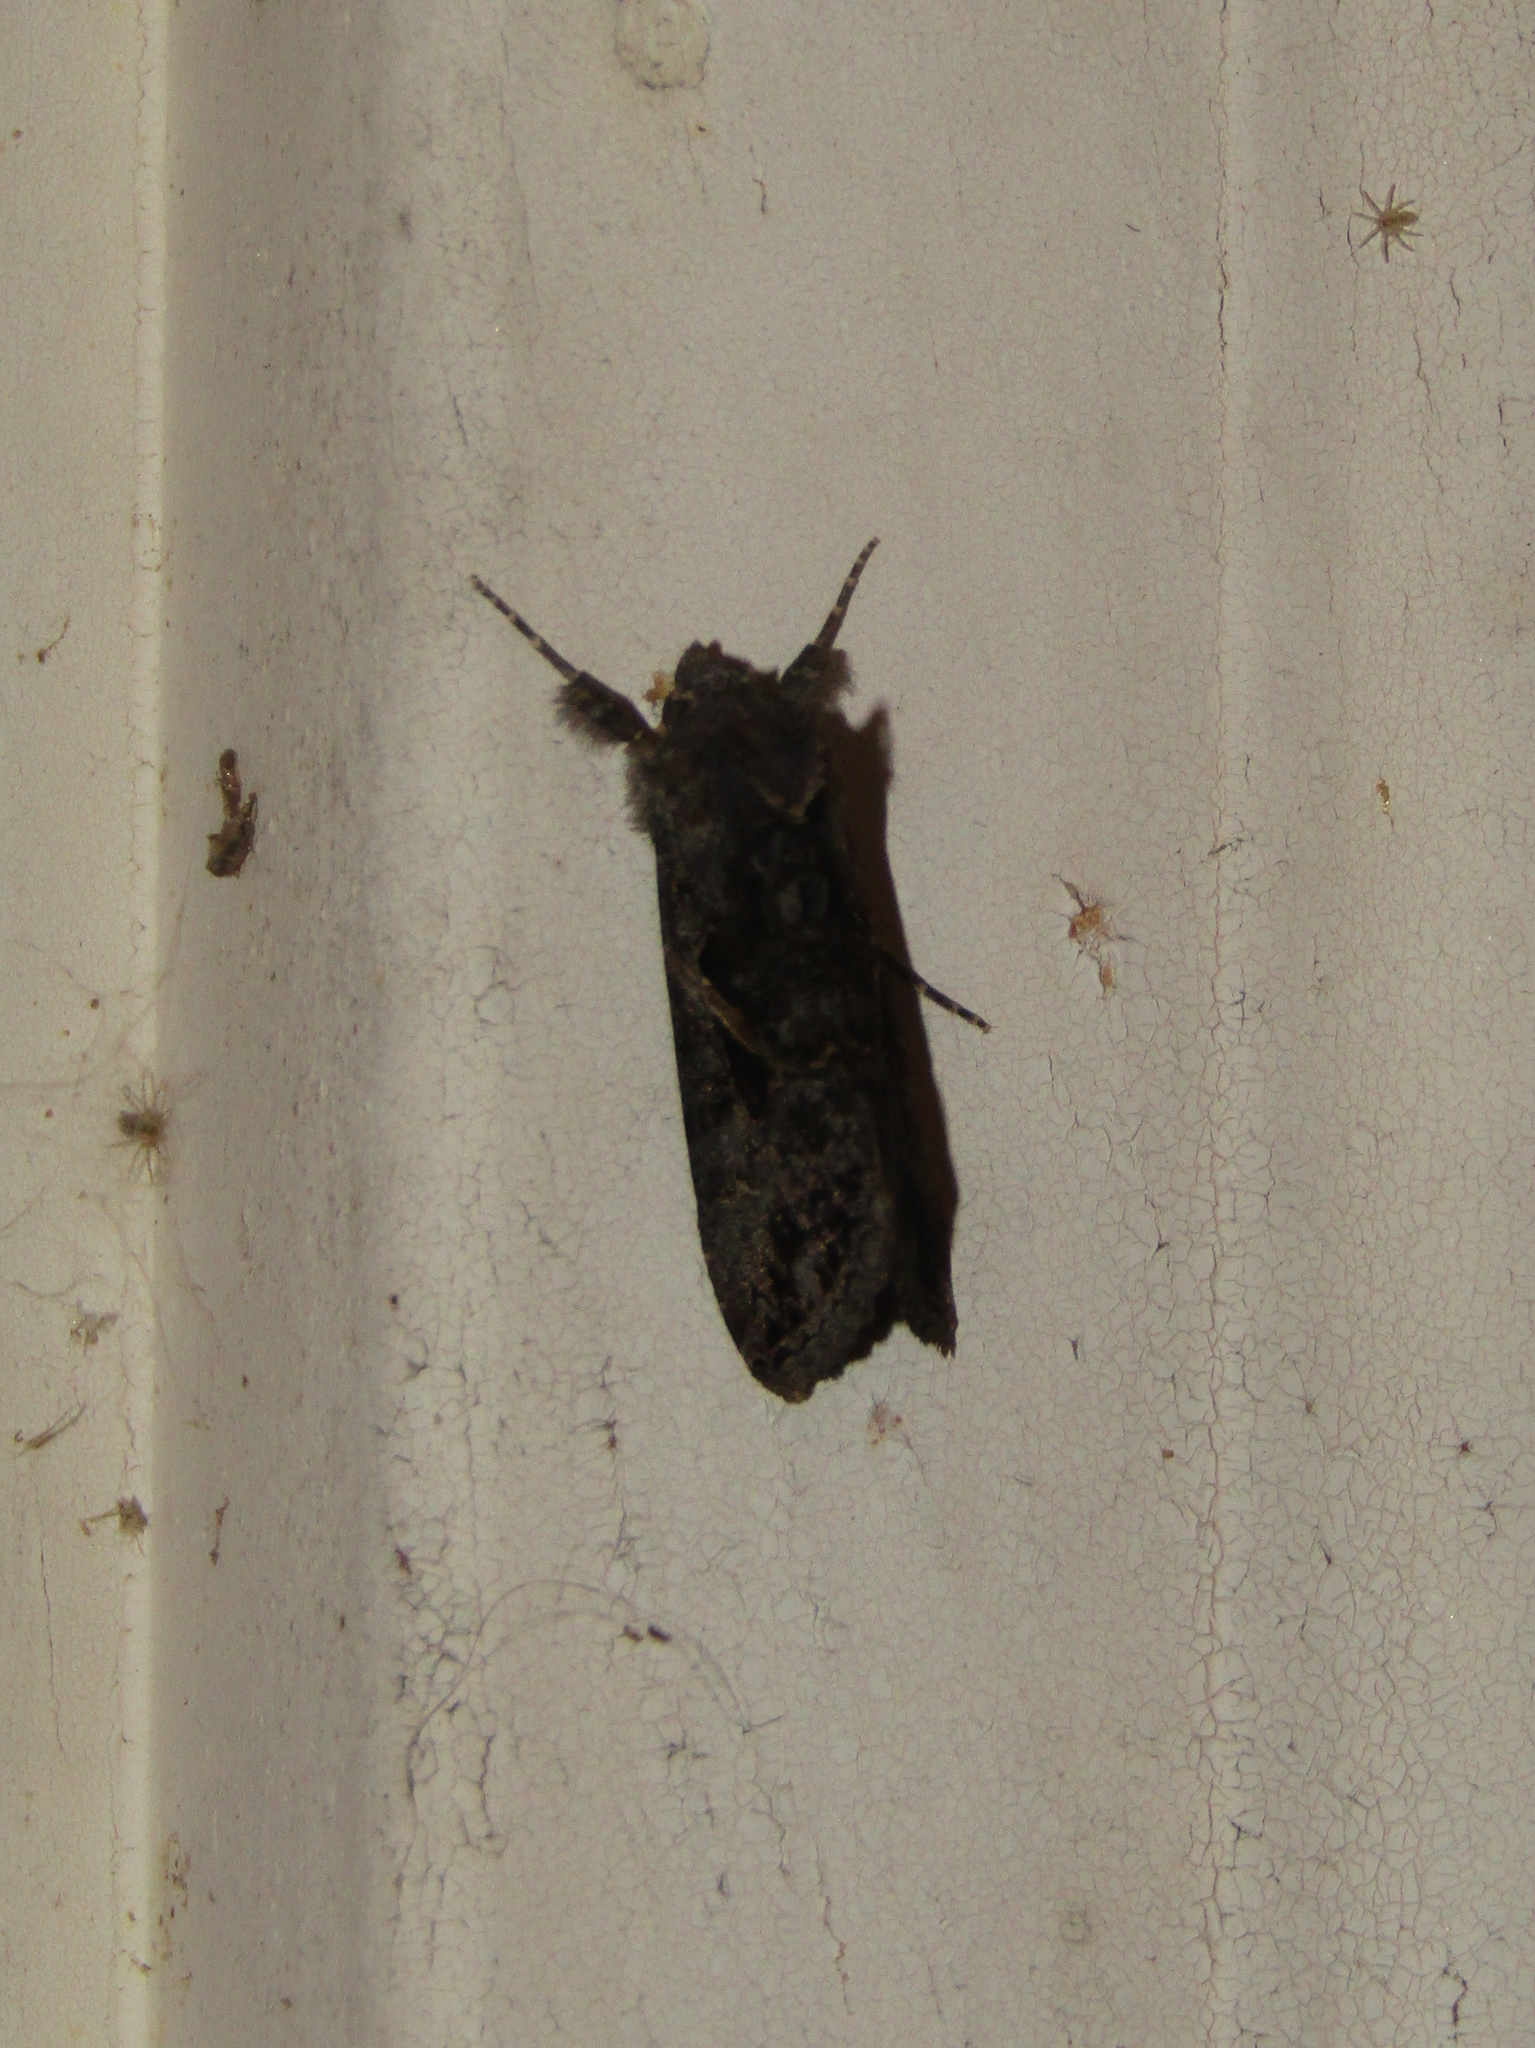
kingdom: Animalia
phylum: Arthropoda
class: Insecta
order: Lepidoptera
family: Noctuidae
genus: Ctenoplusia
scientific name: Ctenoplusia oxygramma
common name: Sharp-stigma looper moth
